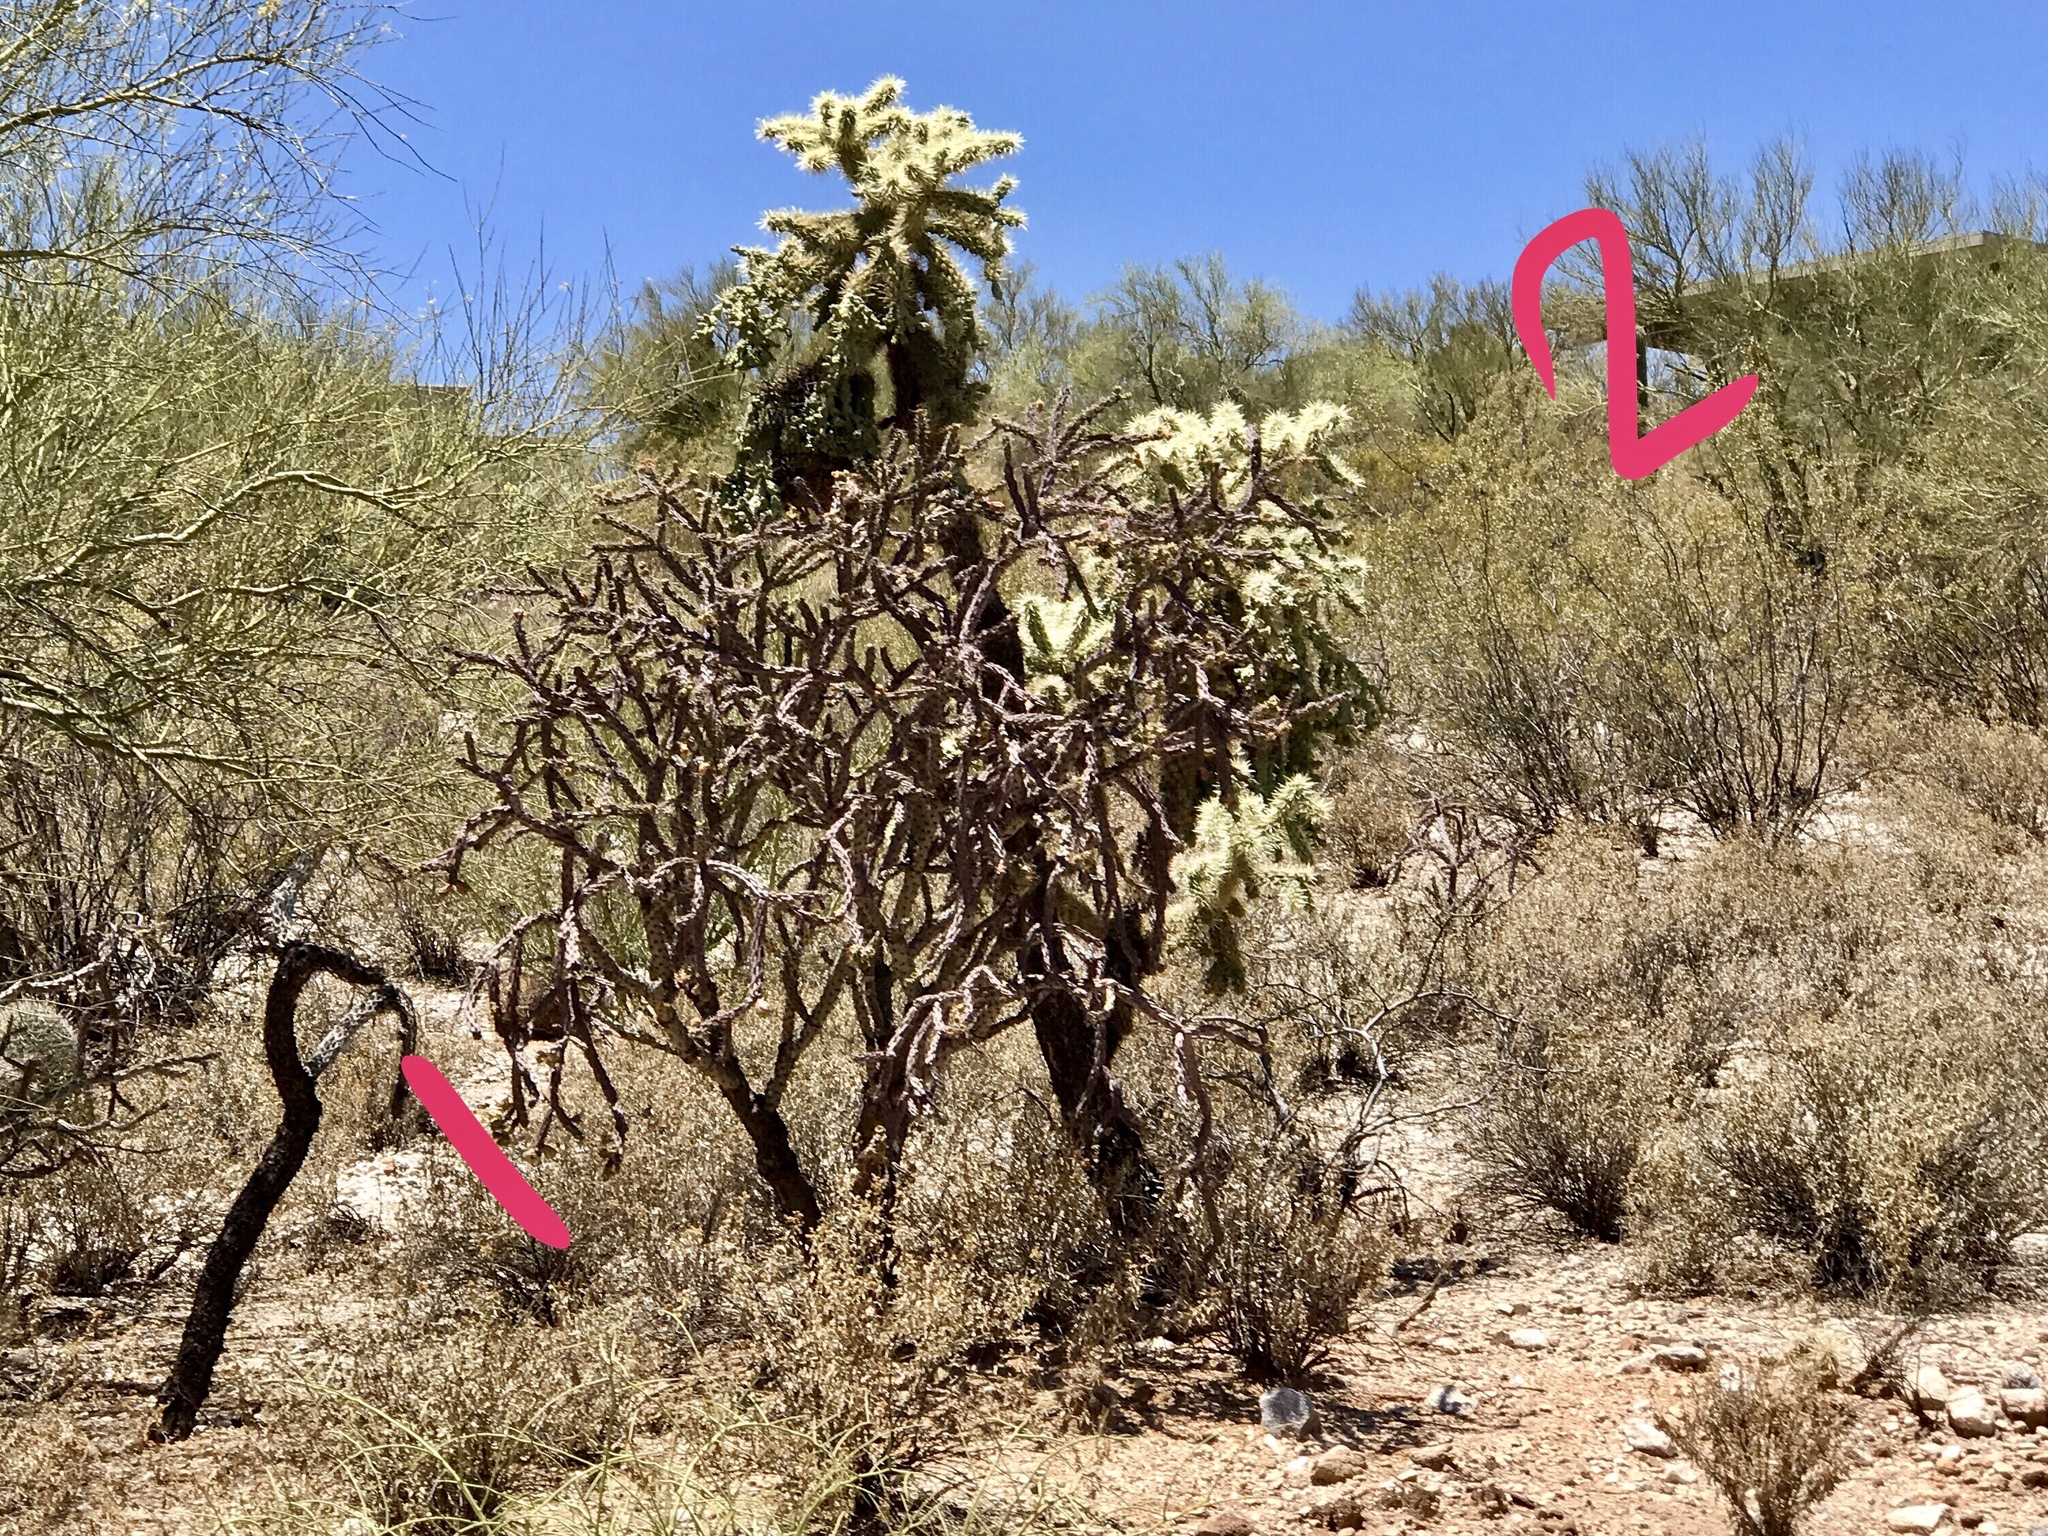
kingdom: Plantae
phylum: Tracheophyta
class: Magnoliopsida
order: Caryophyllales
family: Cactaceae
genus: Cylindropuntia
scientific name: Cylindropuntia thurberi
